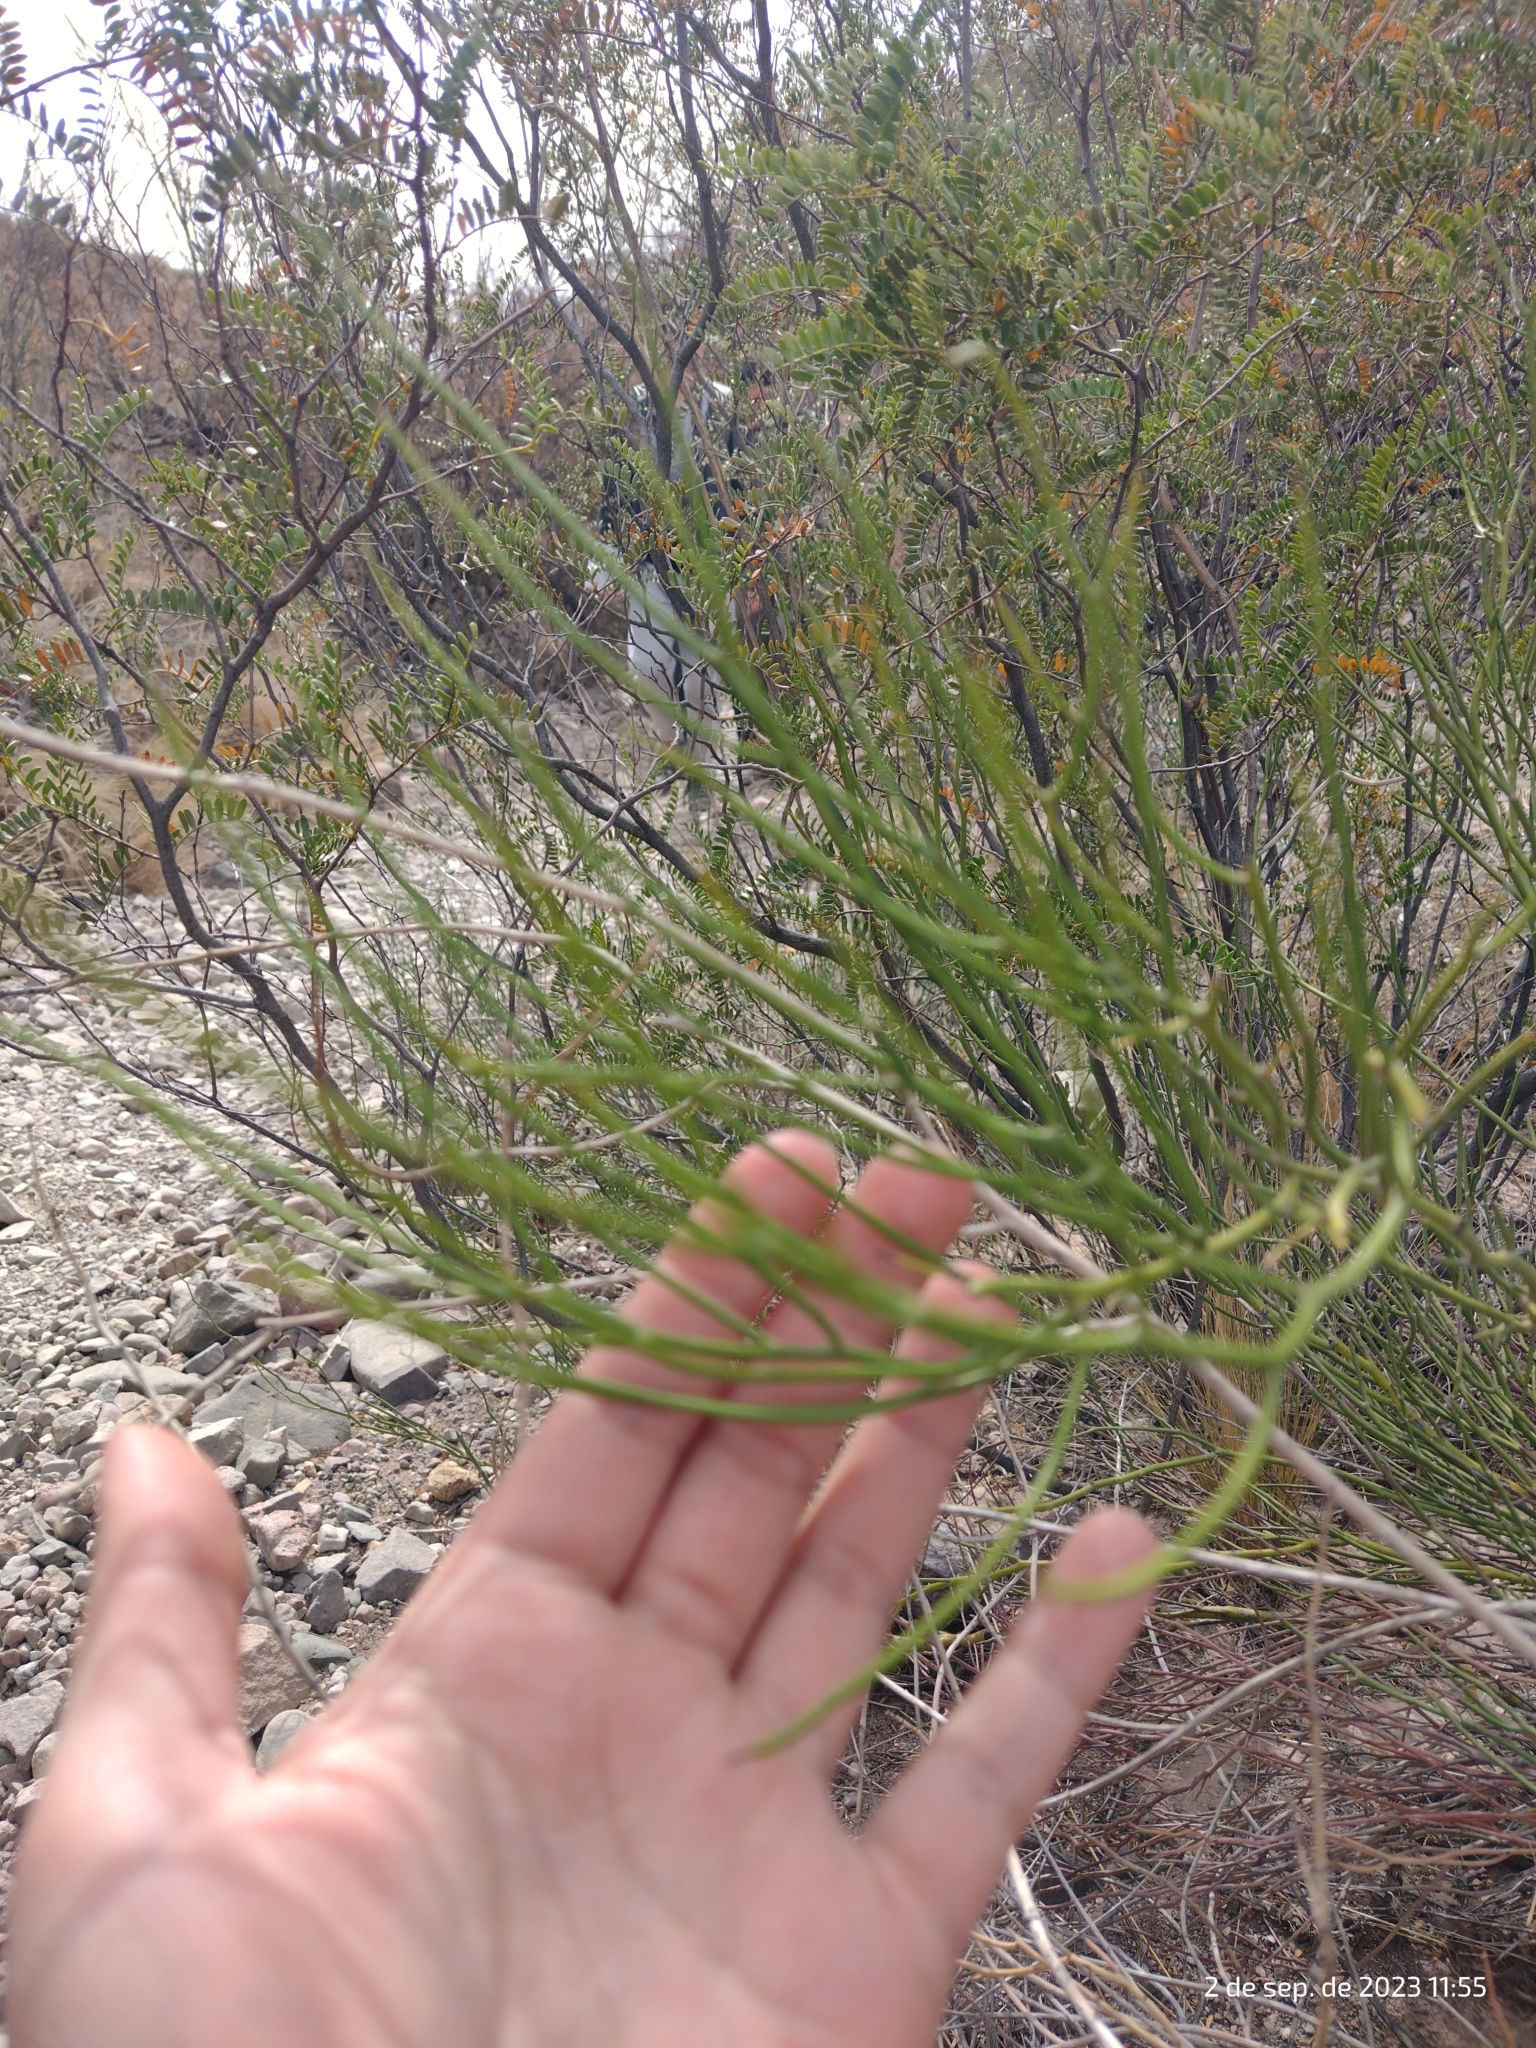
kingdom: Plantae
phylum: Tracheophyta
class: Magnoliopsida
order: Fabales
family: Fabaceae
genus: Senna
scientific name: Senna aphylla
